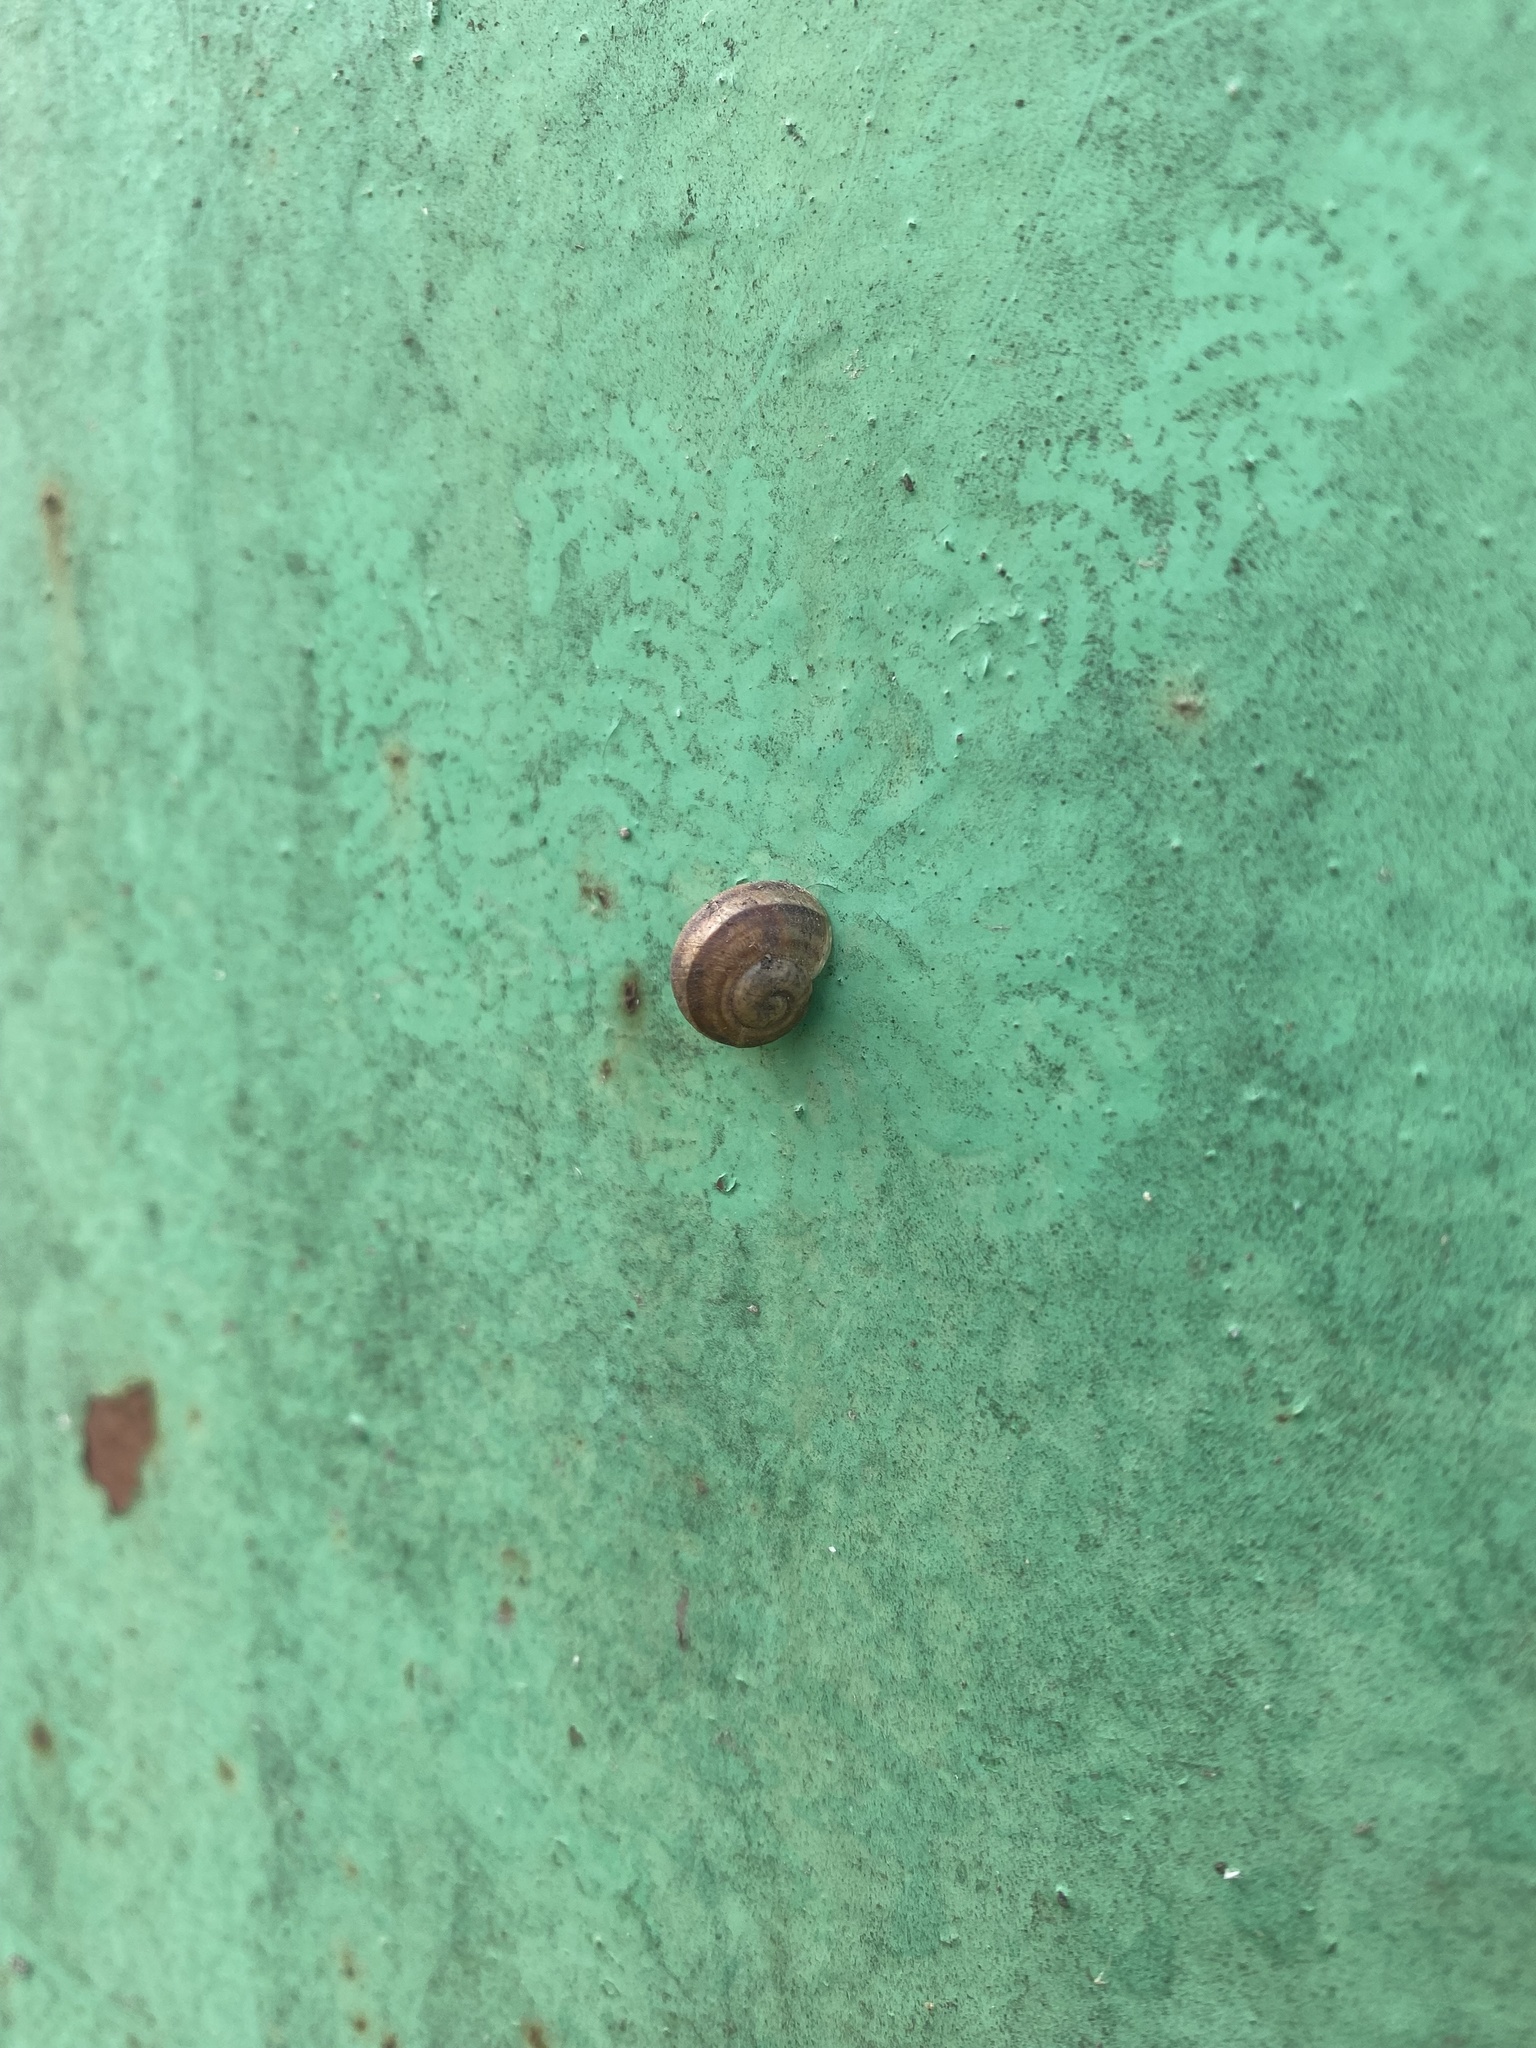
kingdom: Animalia
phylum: Mollusca
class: Gastropoda
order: Stylommatophora
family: Helicidae
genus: Helix
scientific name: Helix lucorum
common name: Turkish snail
